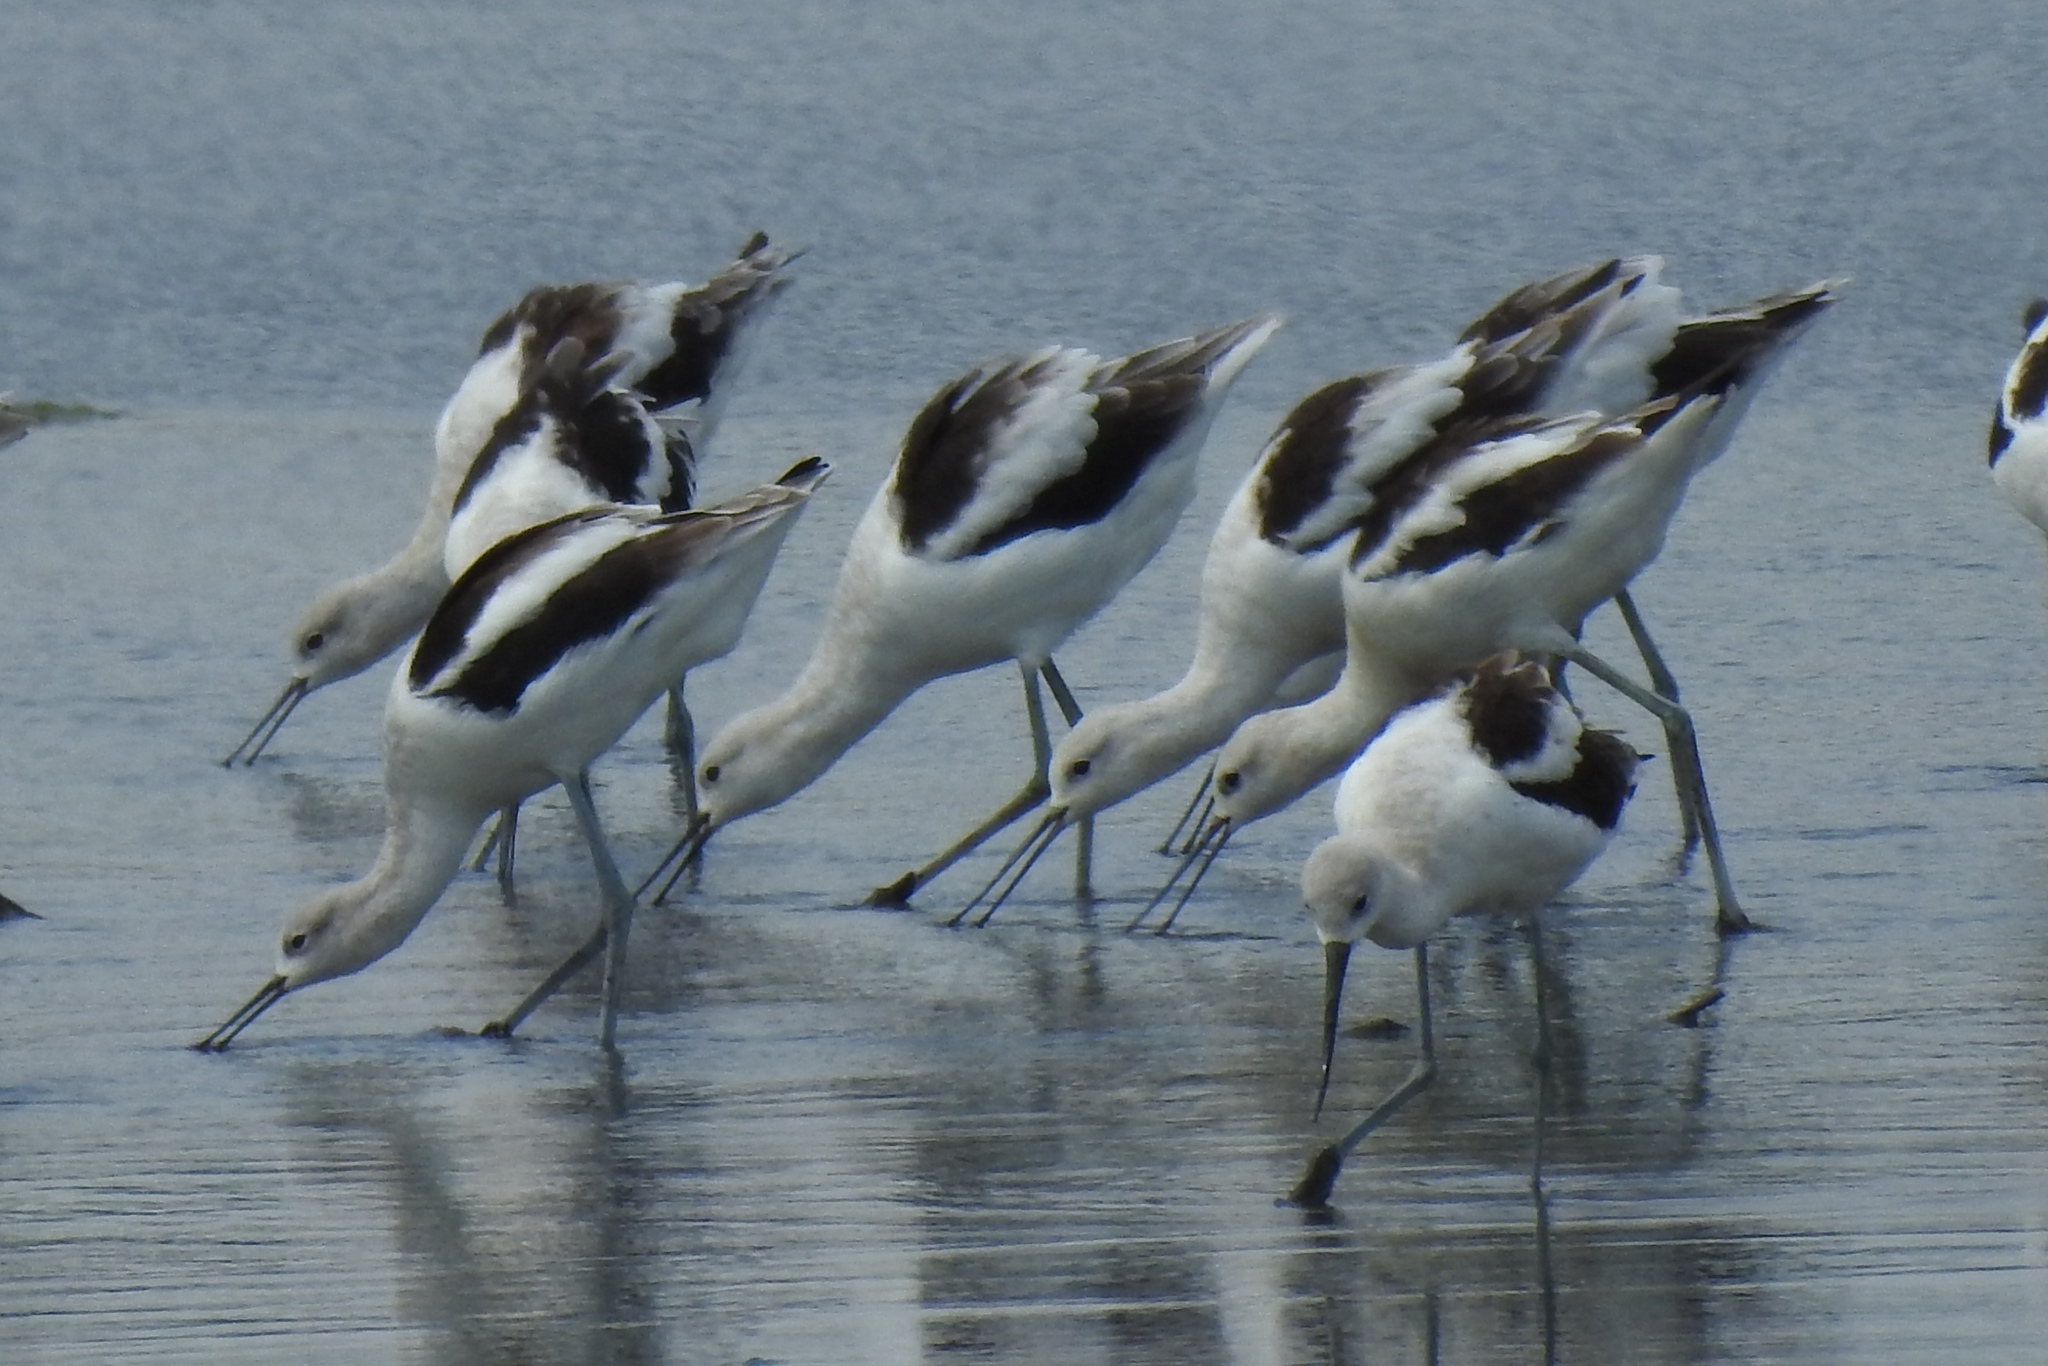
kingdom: Animalia
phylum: Chordata
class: Aves
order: Charadriiformes
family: Recurvirostridae
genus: Recurvirostra
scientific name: Recurvirostra americana
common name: American avocet
